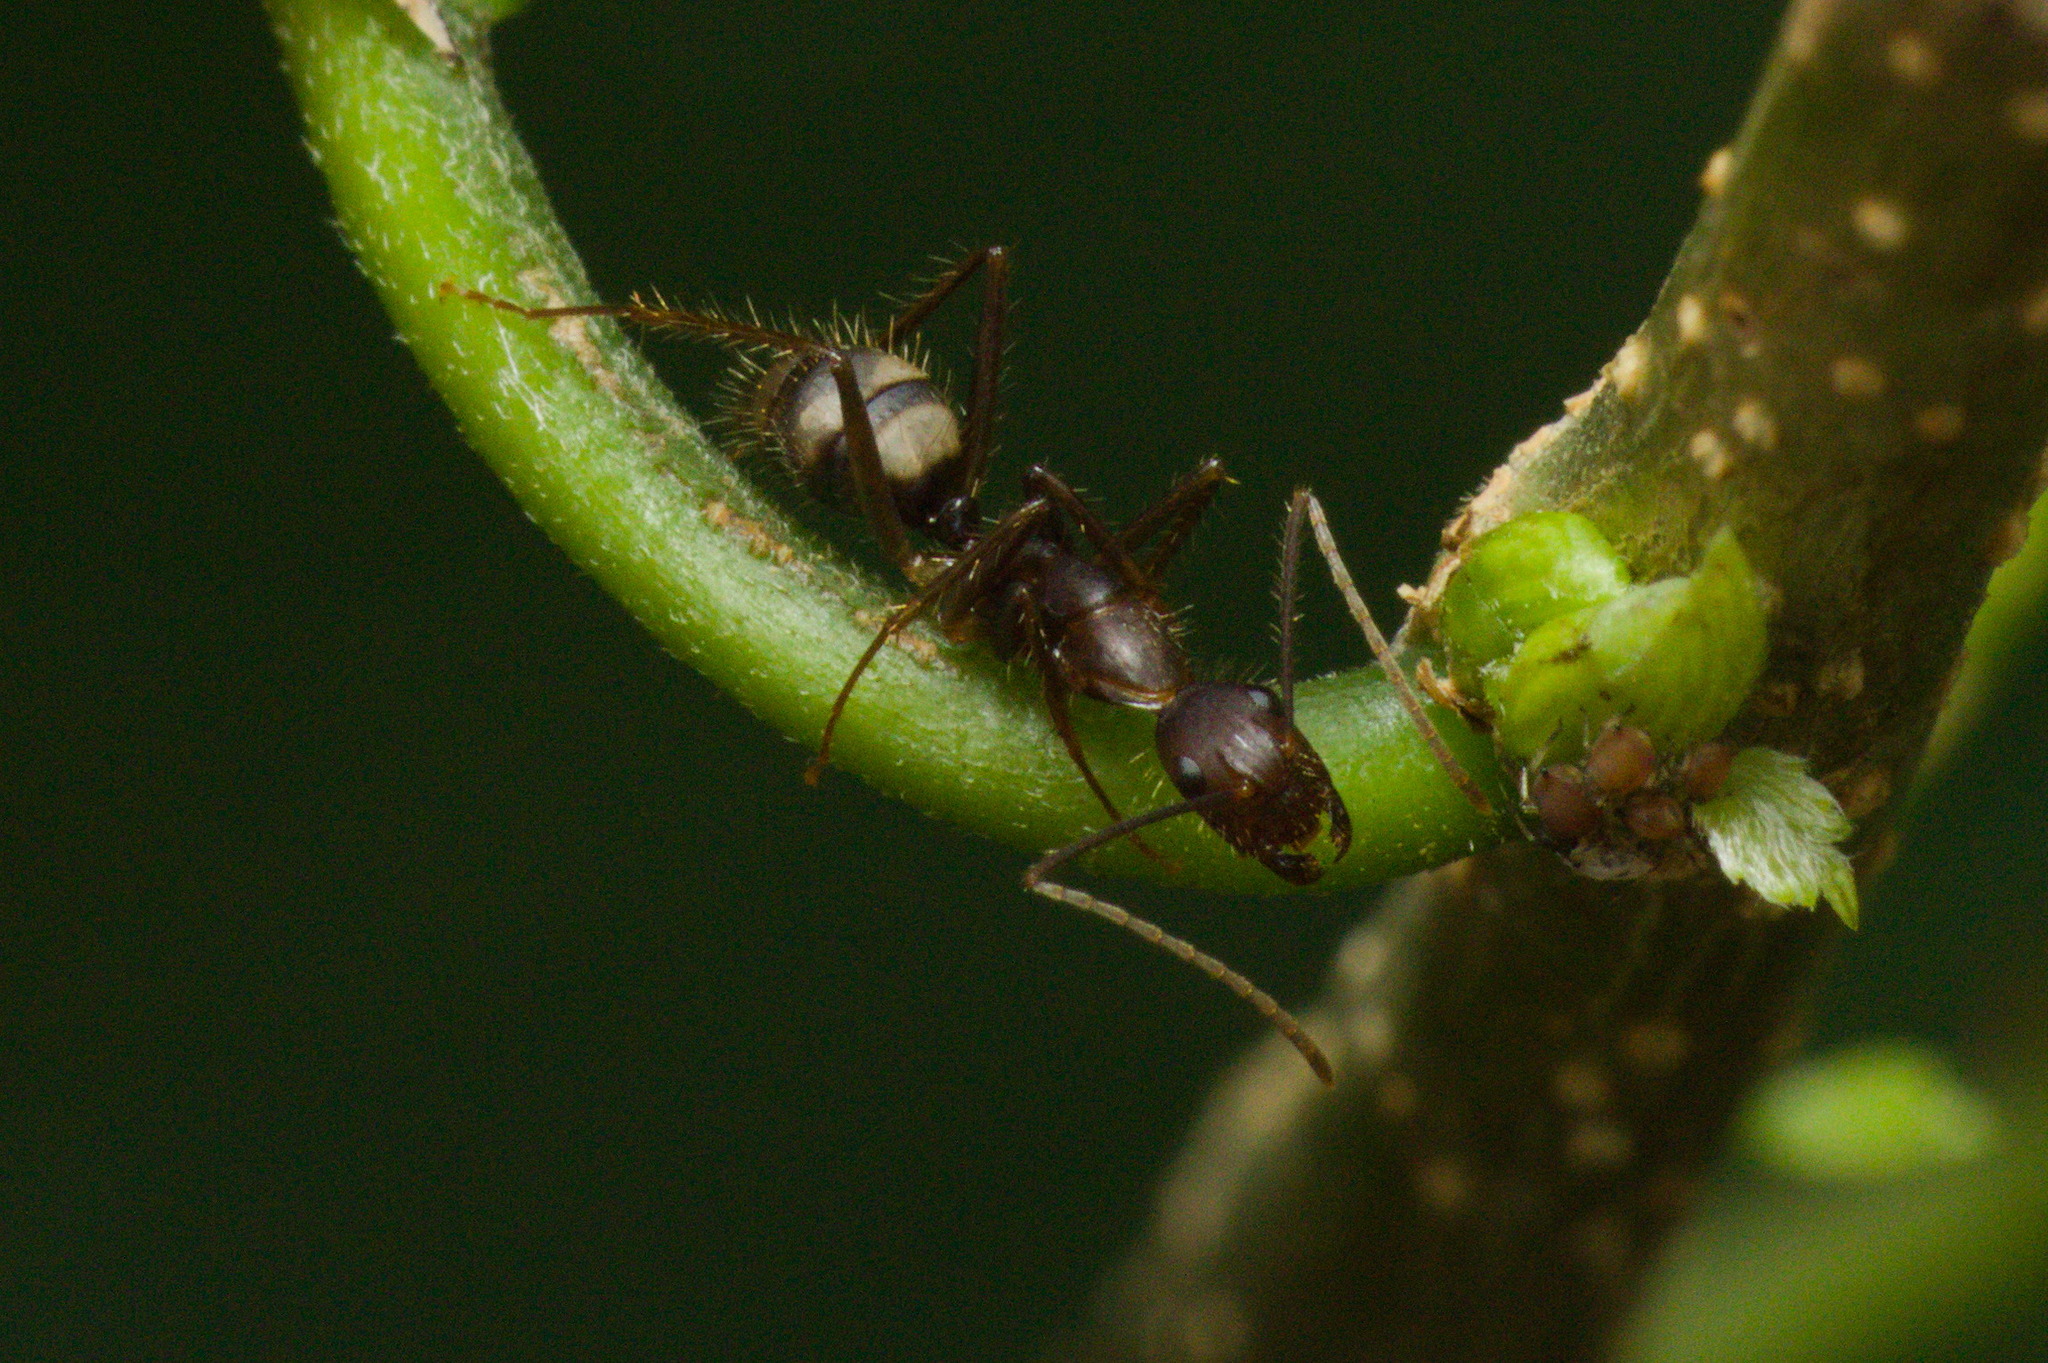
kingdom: Animalia
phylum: Arthropoda
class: Insecta
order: Hymenoptera
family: Formicidae
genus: Camponotus
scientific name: Camponotus cingulatus
